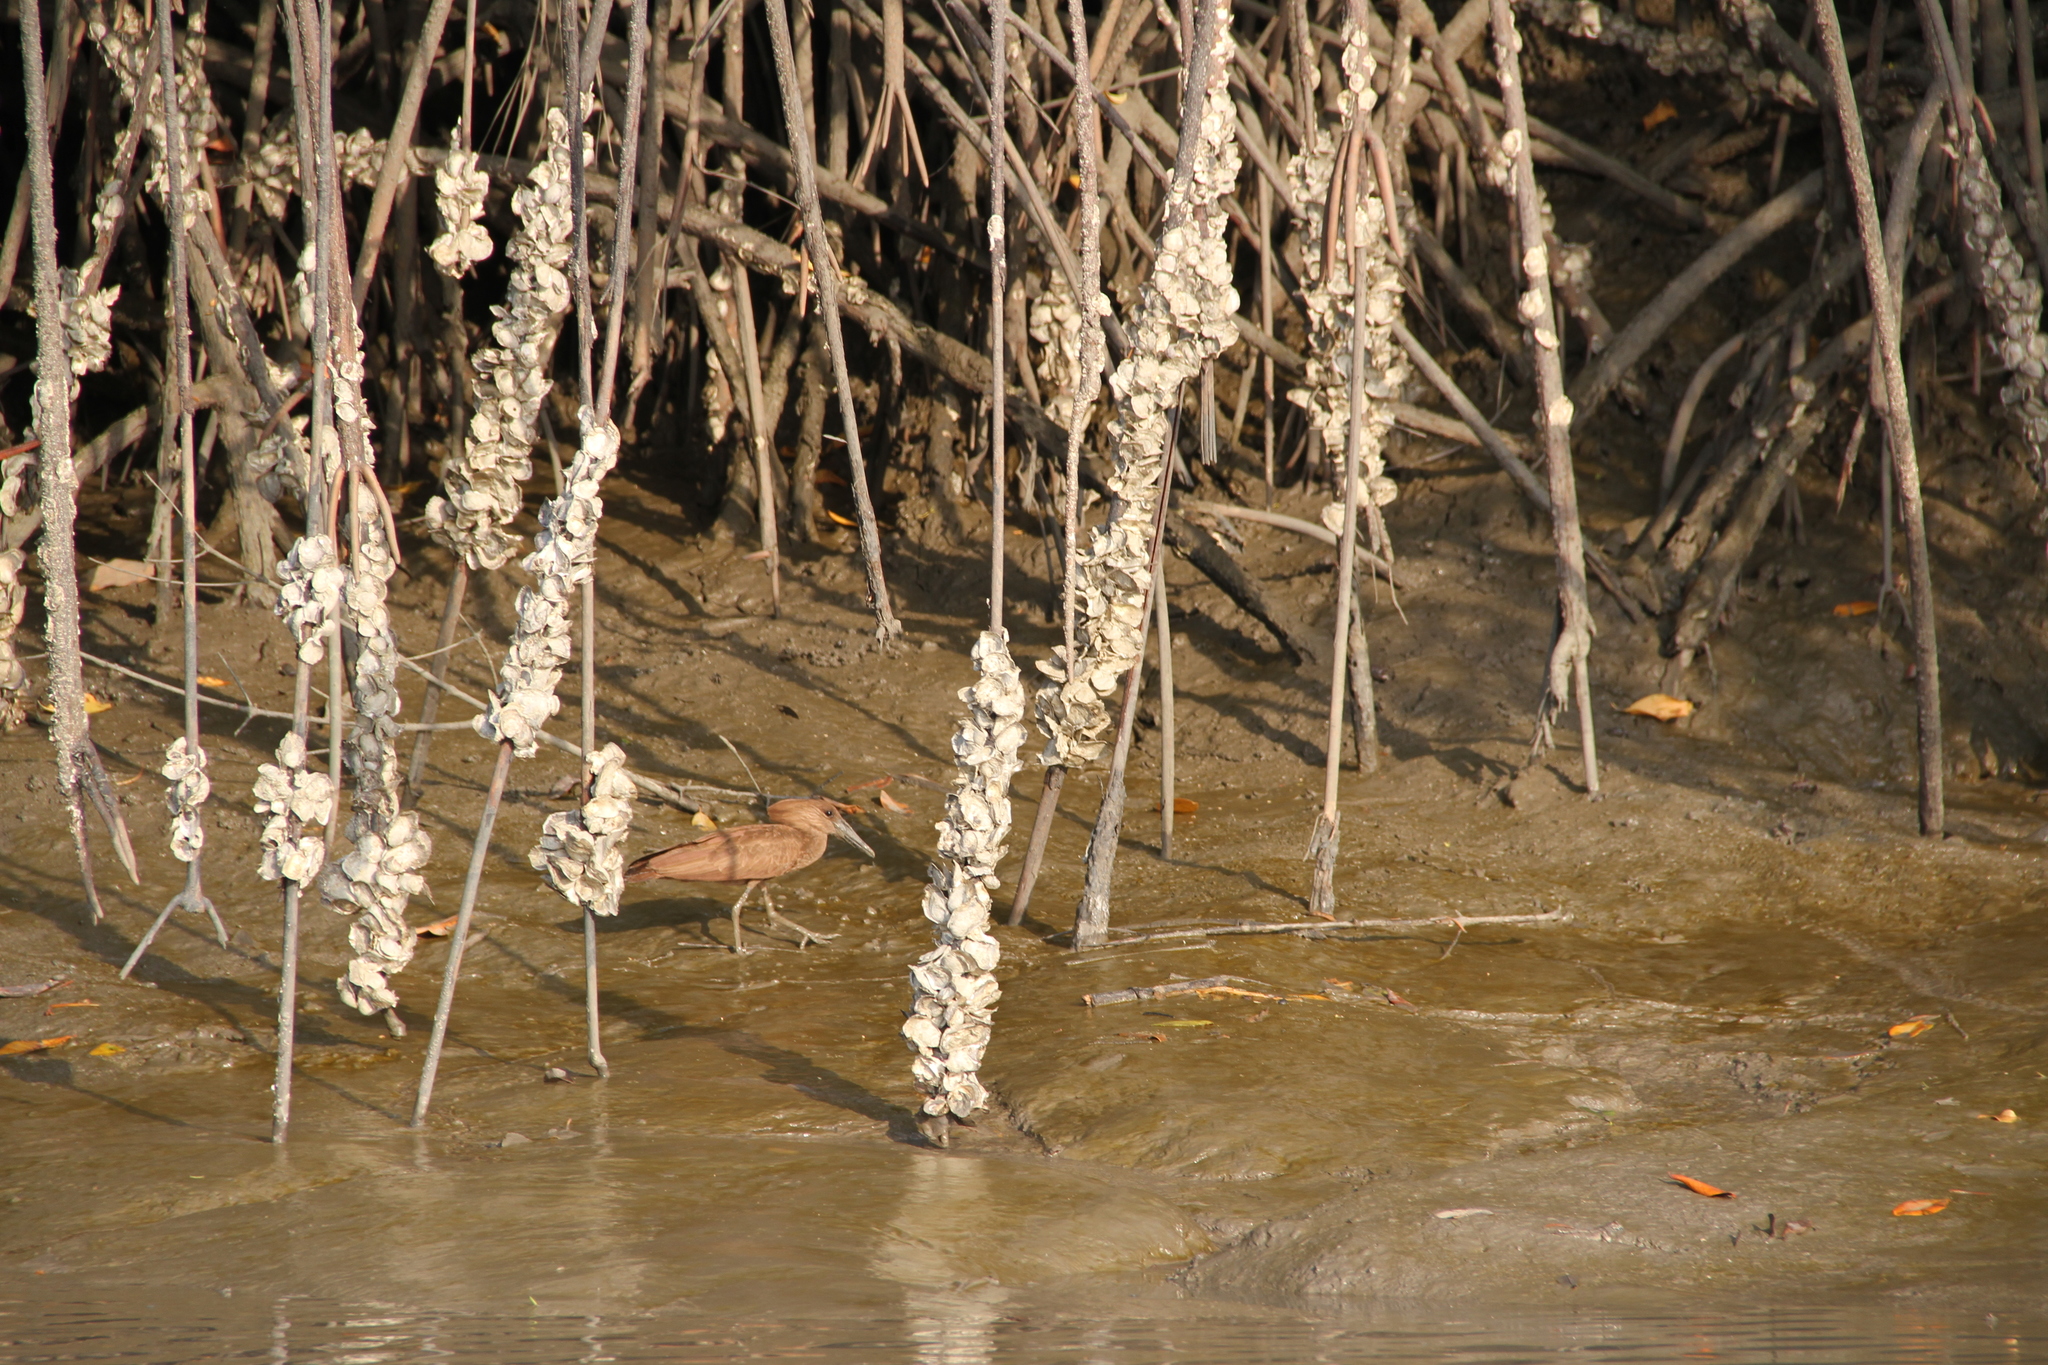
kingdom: Animalia
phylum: Chordata
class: Aves
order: Pelecaniformes
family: Scopidae
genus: Scopus
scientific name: Scopus umbretta
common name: Hamerkop
